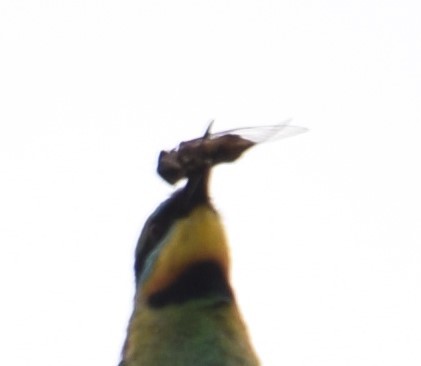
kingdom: Animalia
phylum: Arthropoda
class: Insecta
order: Hemiptera
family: Cicadidae
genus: Psaltoda
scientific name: Psaltoda harrisii
